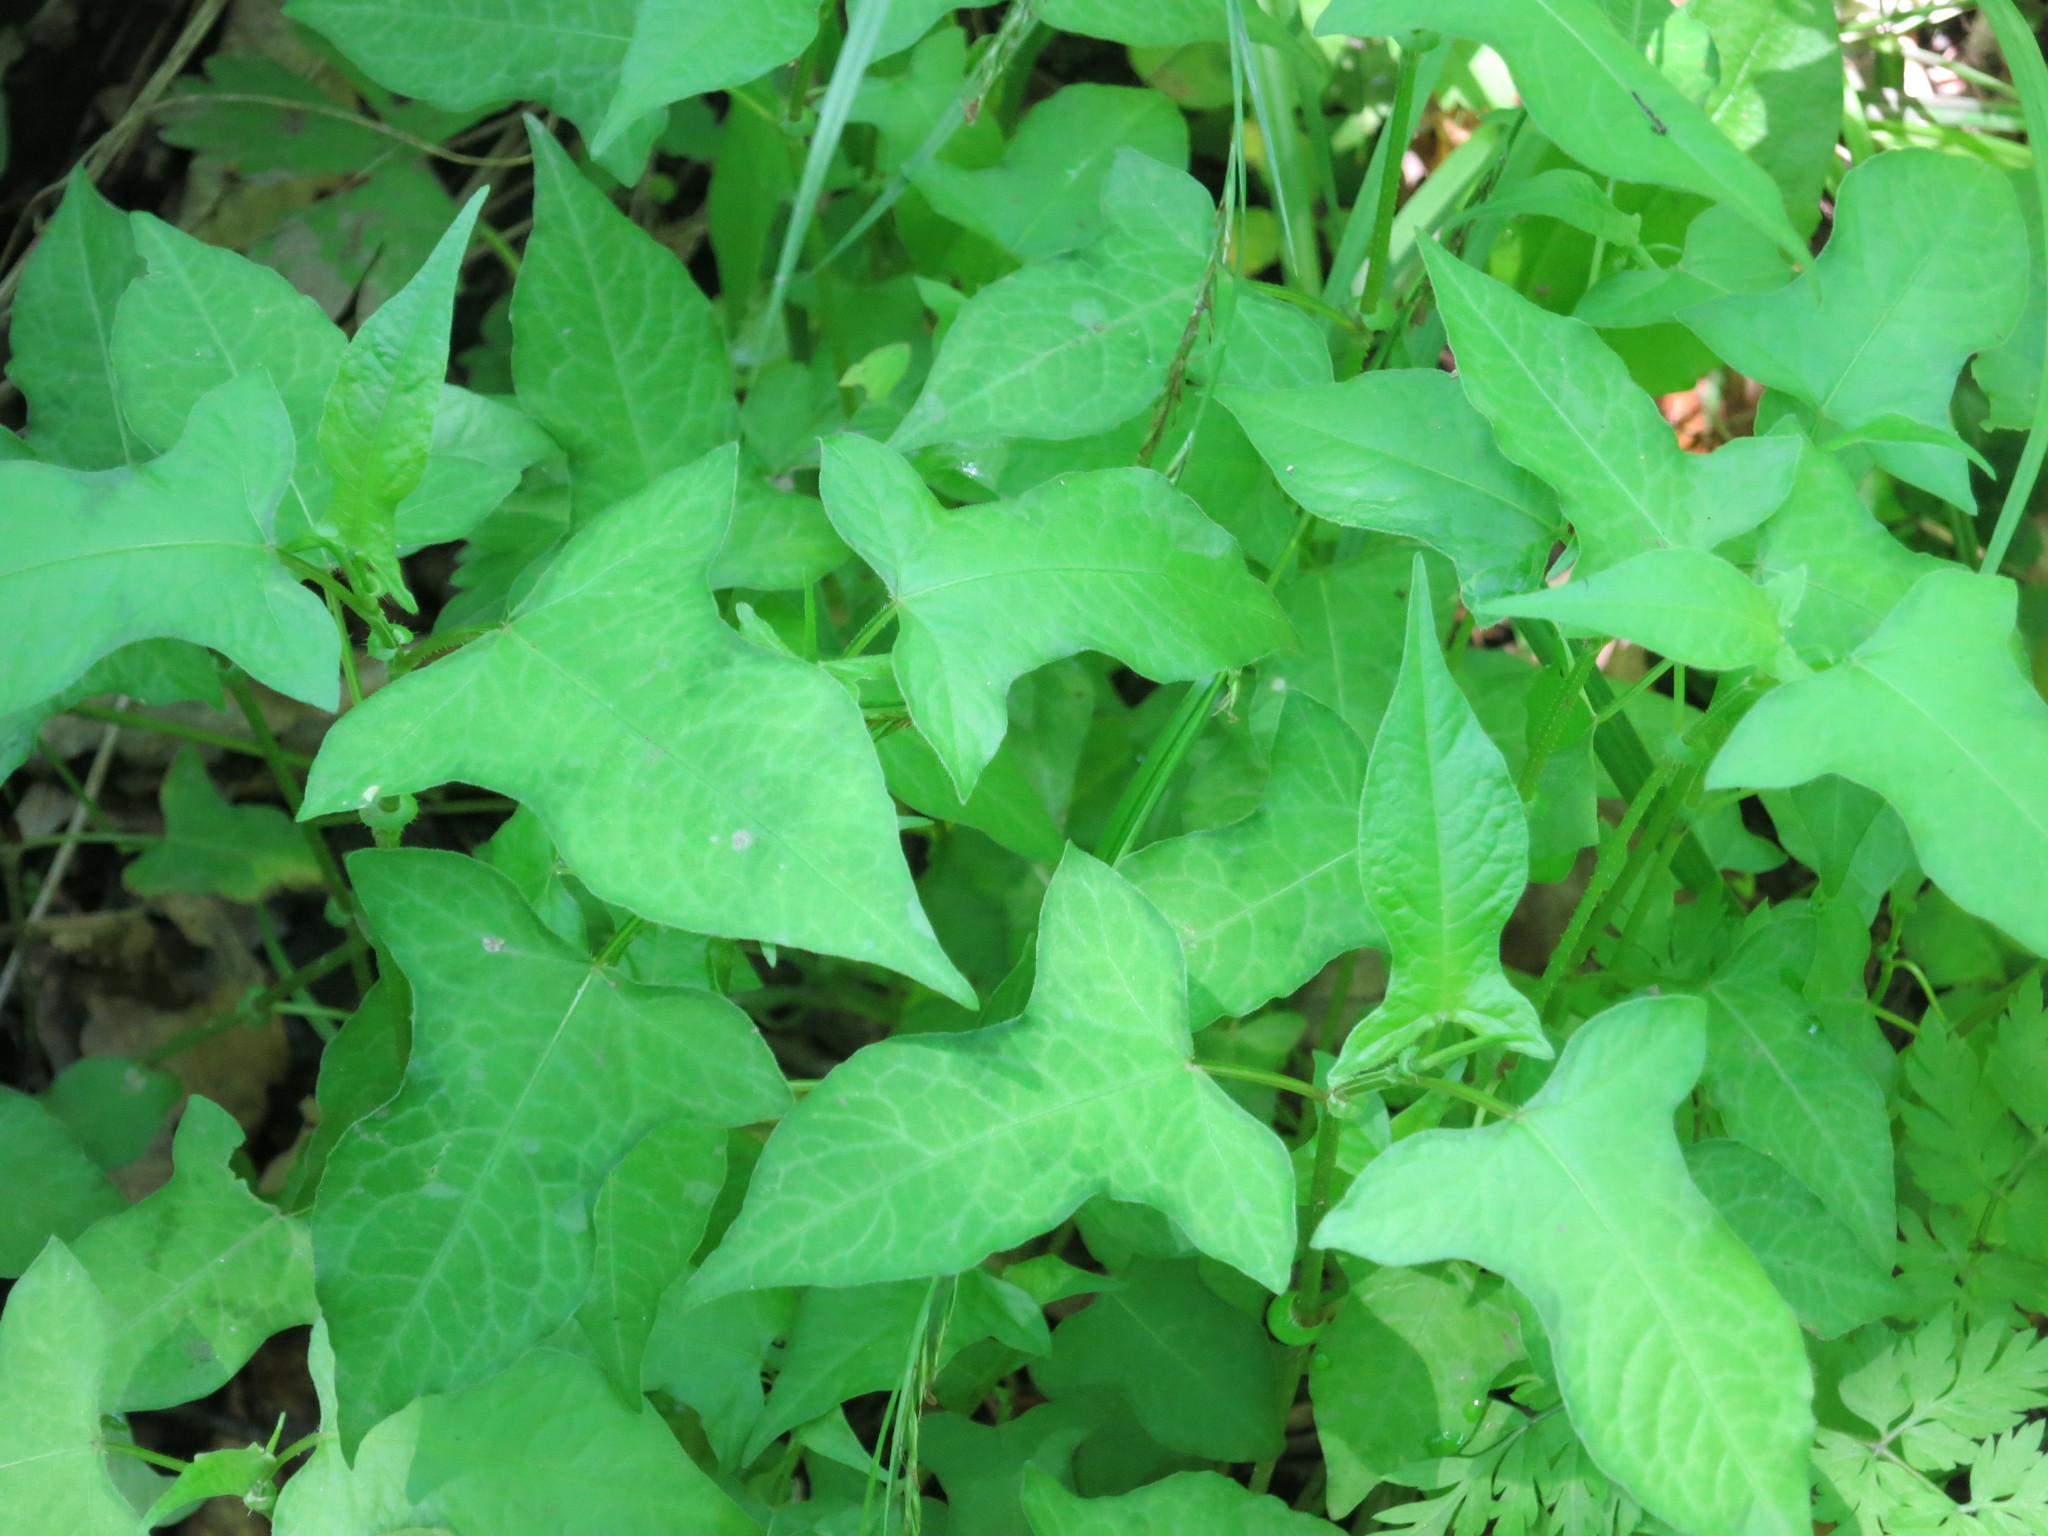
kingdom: Plantae
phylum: Tracheophyta
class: Magnoliopsida
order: Caryophyllales
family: Polygonaceae
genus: Persicaria
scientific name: Persicaria thunbergii
